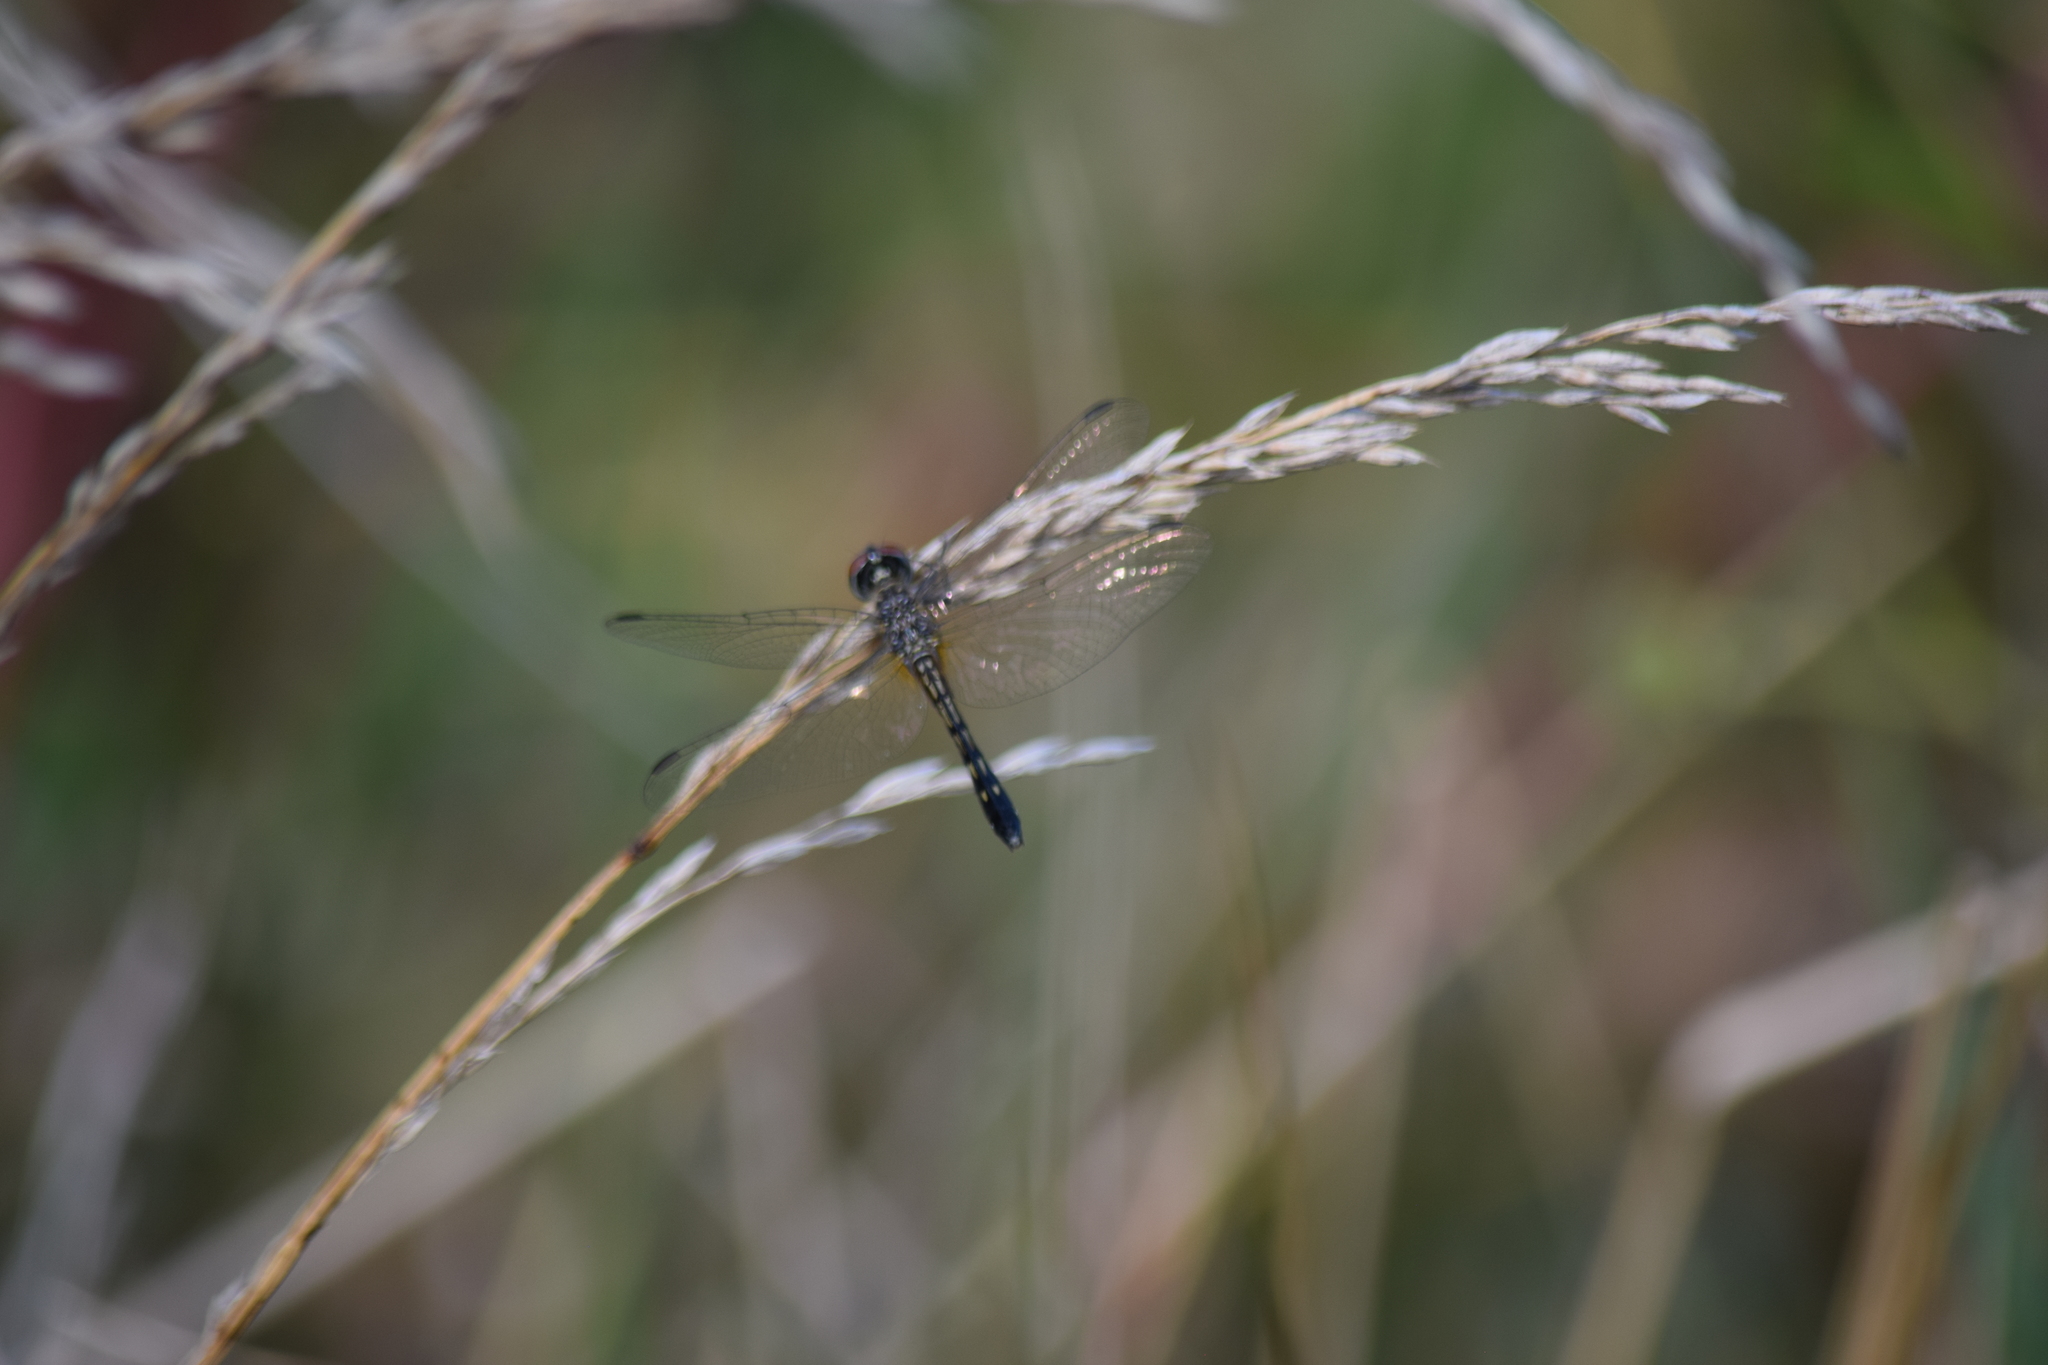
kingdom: Animalia
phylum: Arthropoda
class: Insecta
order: Odonata
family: Libellulidae
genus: Pachydiplax
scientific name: Pachydiplax longipennis
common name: Blue dasher
